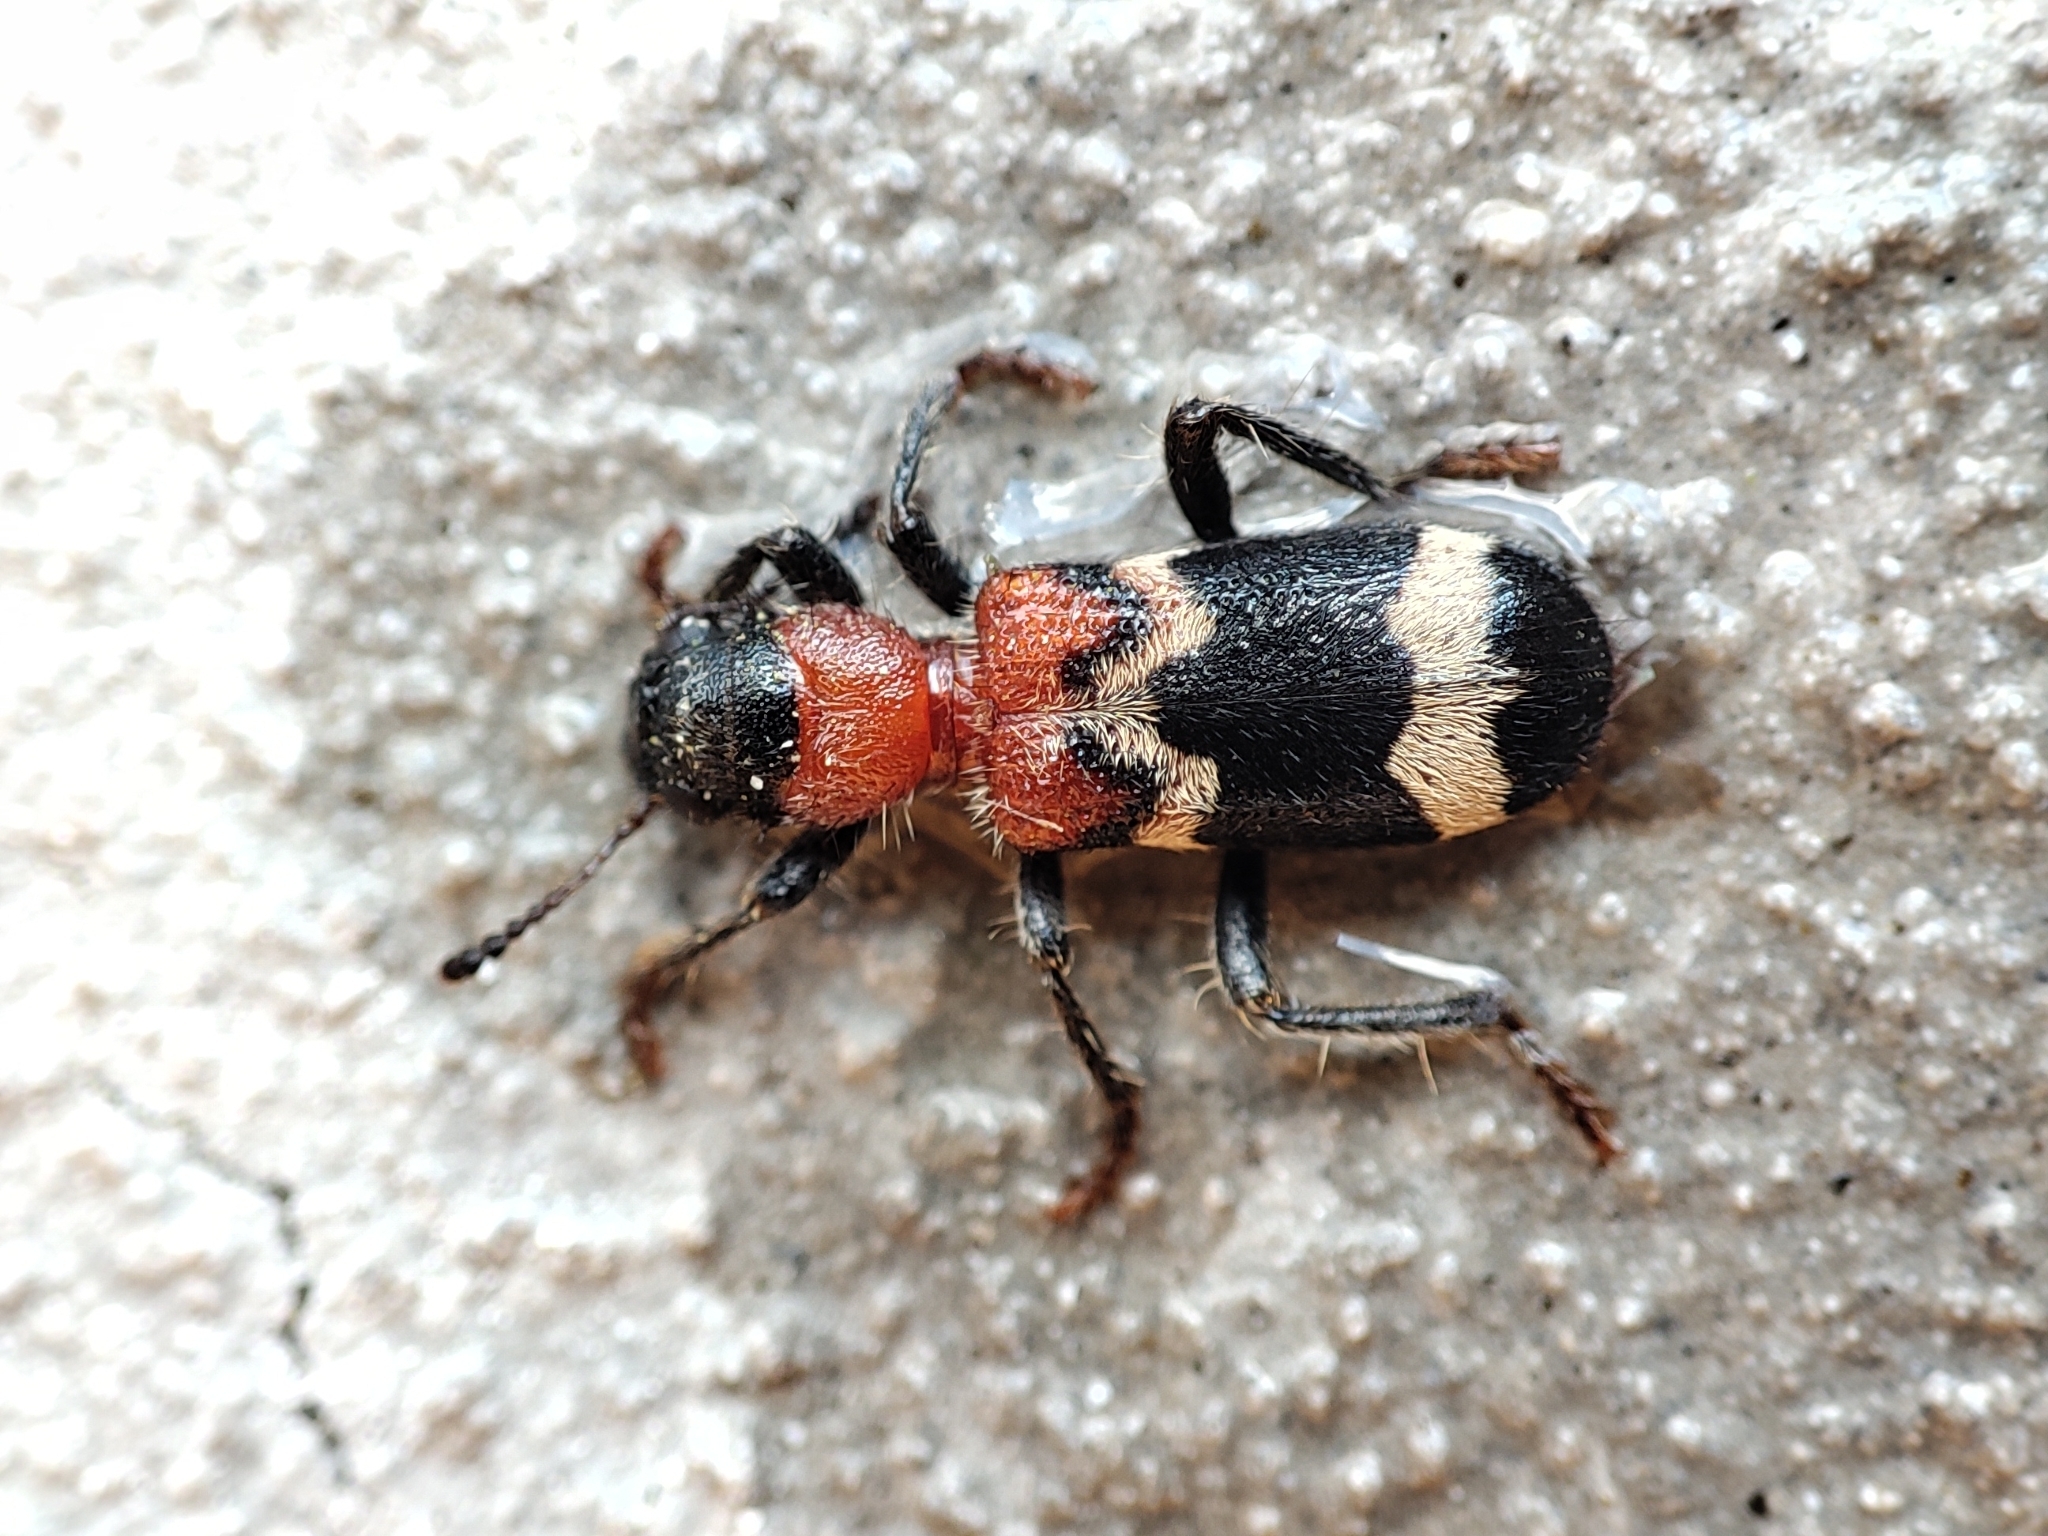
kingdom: Animalia
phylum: Arthropoda
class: Insecta
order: Coleoptera
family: Cleridae
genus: Thanasimus
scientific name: Thanasimus formicarius
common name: Ant beetle
